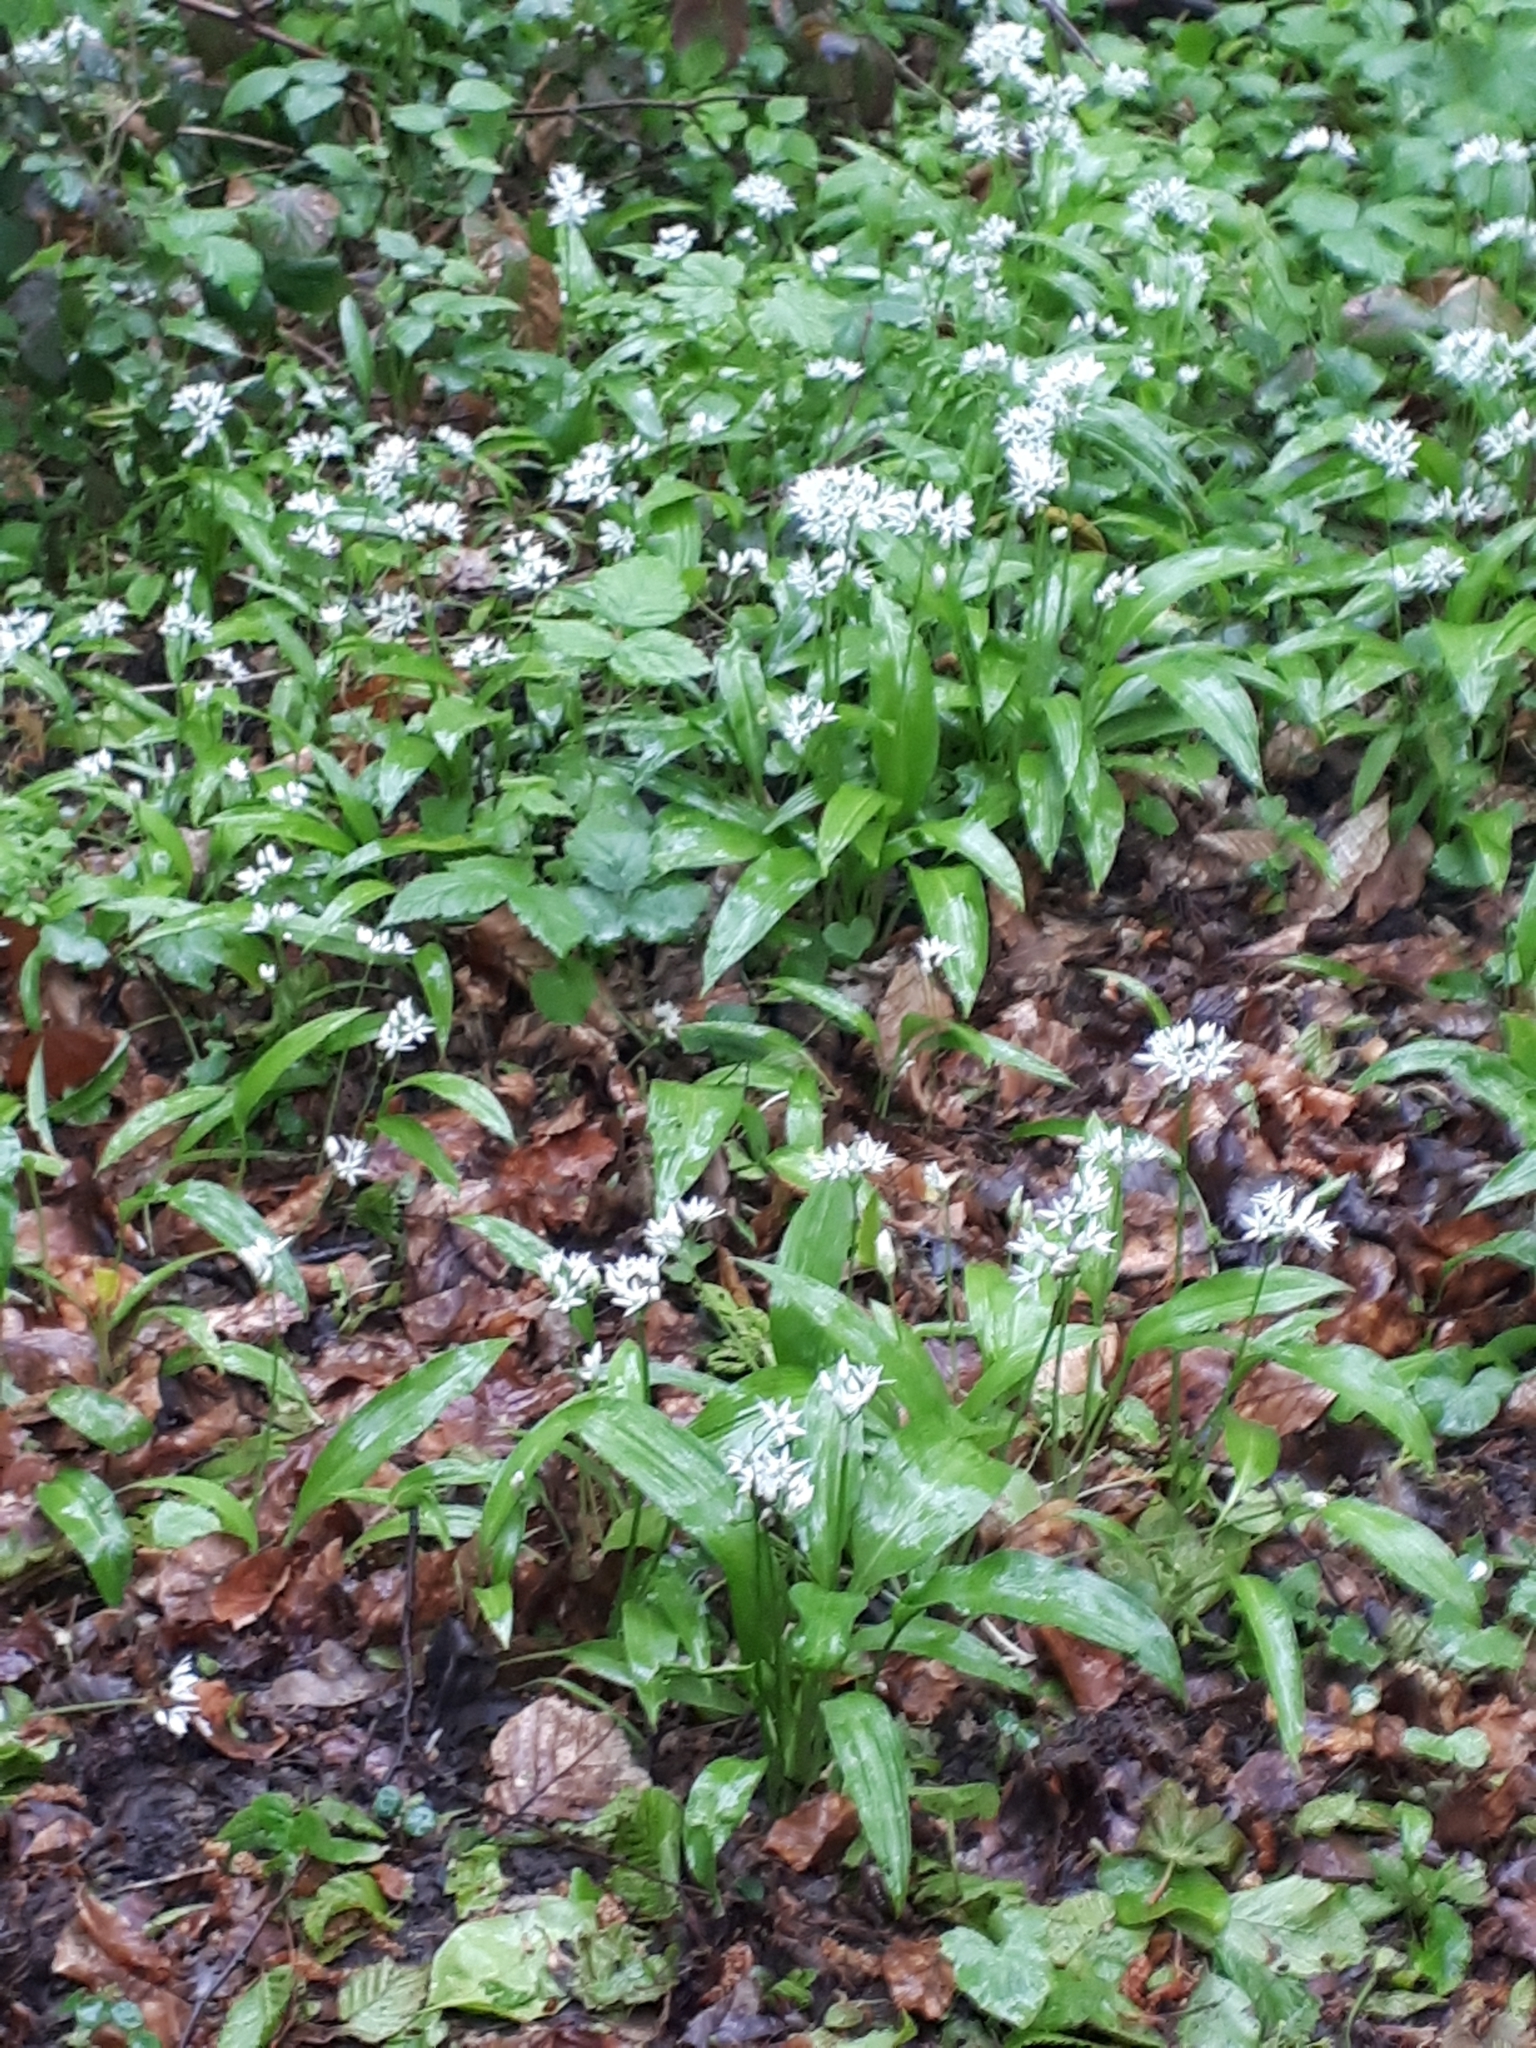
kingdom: Plantae
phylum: Tracheophyta
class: Liliopsida
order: Asparagales
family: Amaryllidaceae
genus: Allium
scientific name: Allium ursinum
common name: Ramsons
